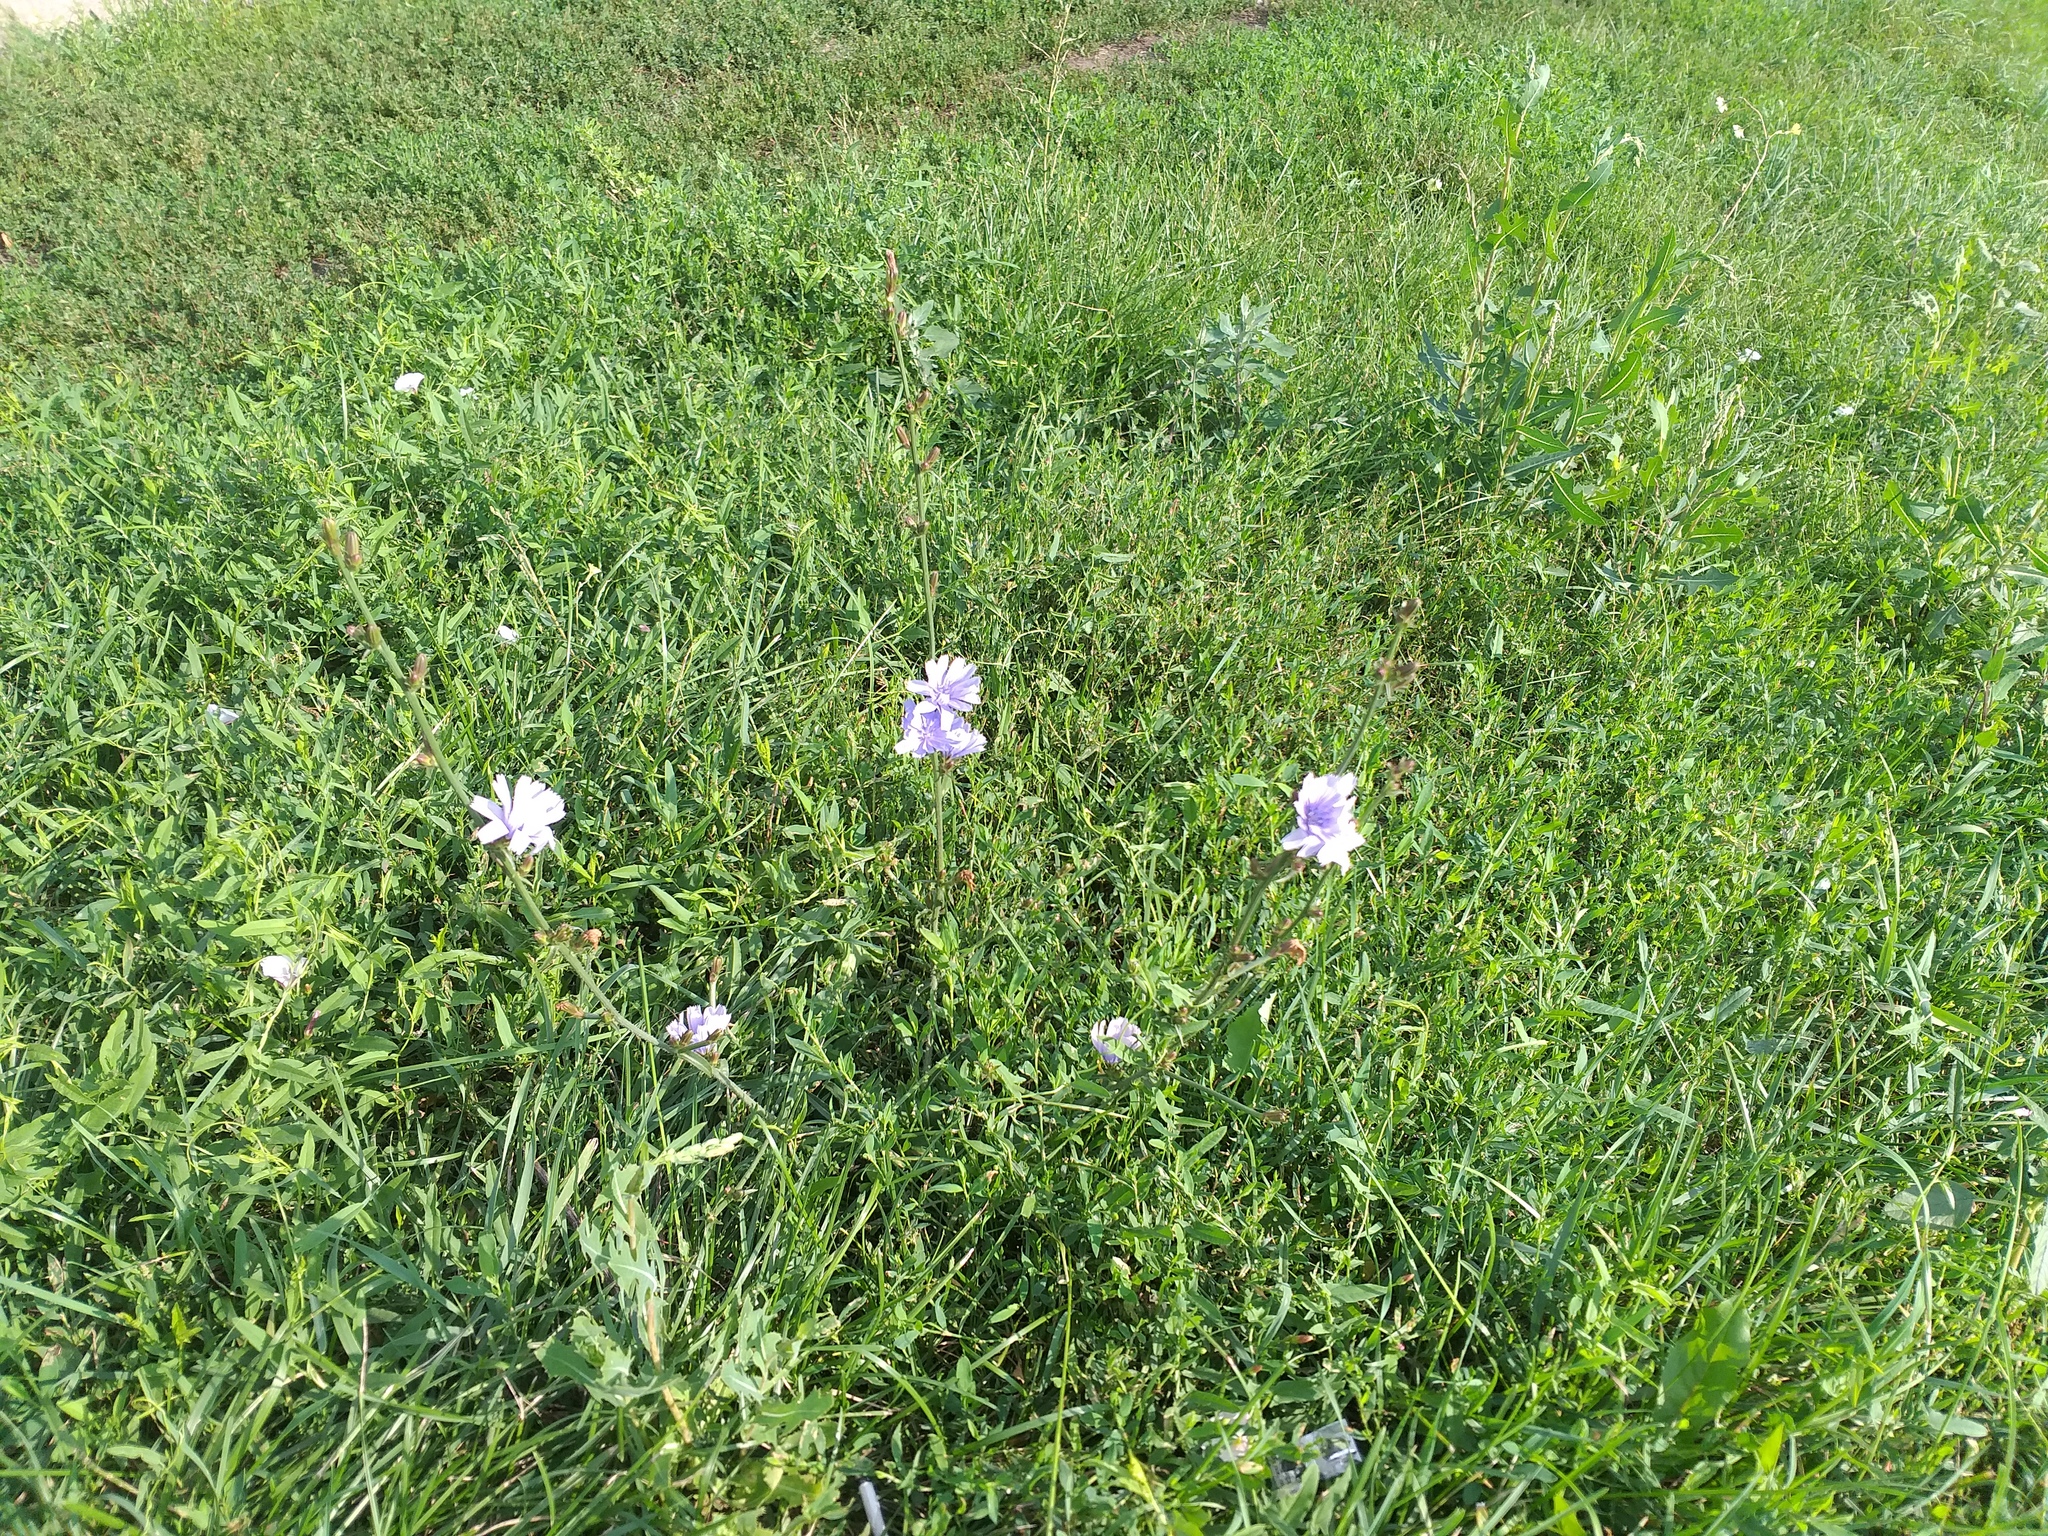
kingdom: Plantae
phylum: Tracheophyta
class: Magnoliopsida
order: Asterales
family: Asteraceae
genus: Cichorium
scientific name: Cichorium intybus
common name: Chicory
